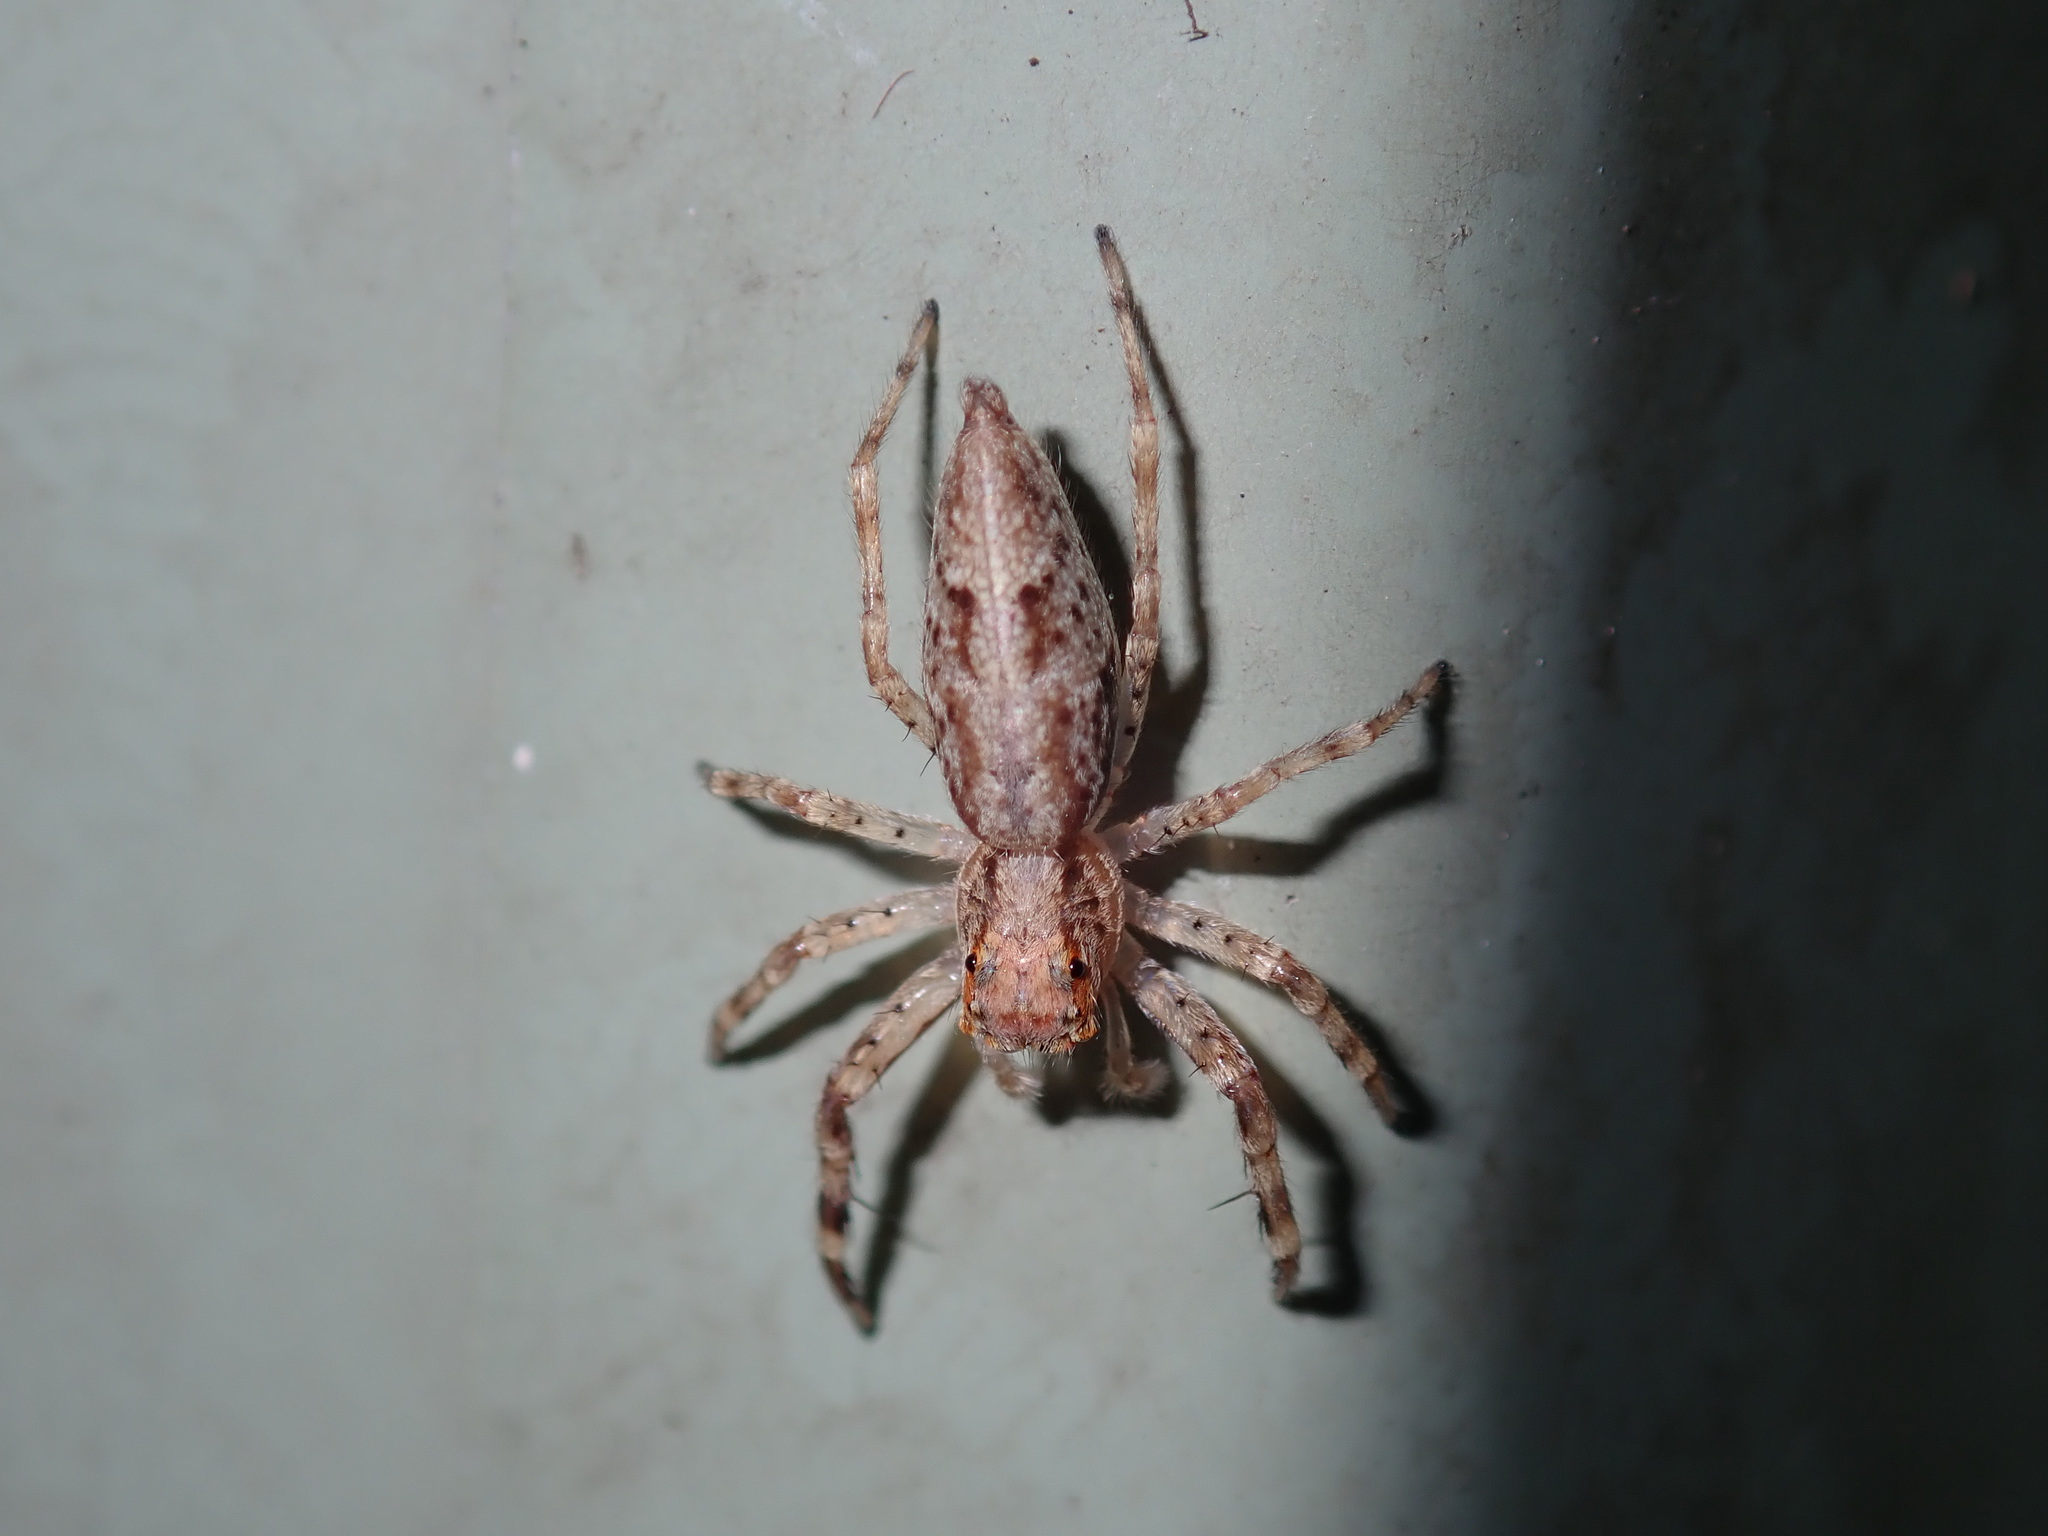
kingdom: Animalia
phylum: Arthropoda
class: Arachnida
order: Araneae
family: Salticidae
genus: Helpis
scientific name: Helpis minitabunda
